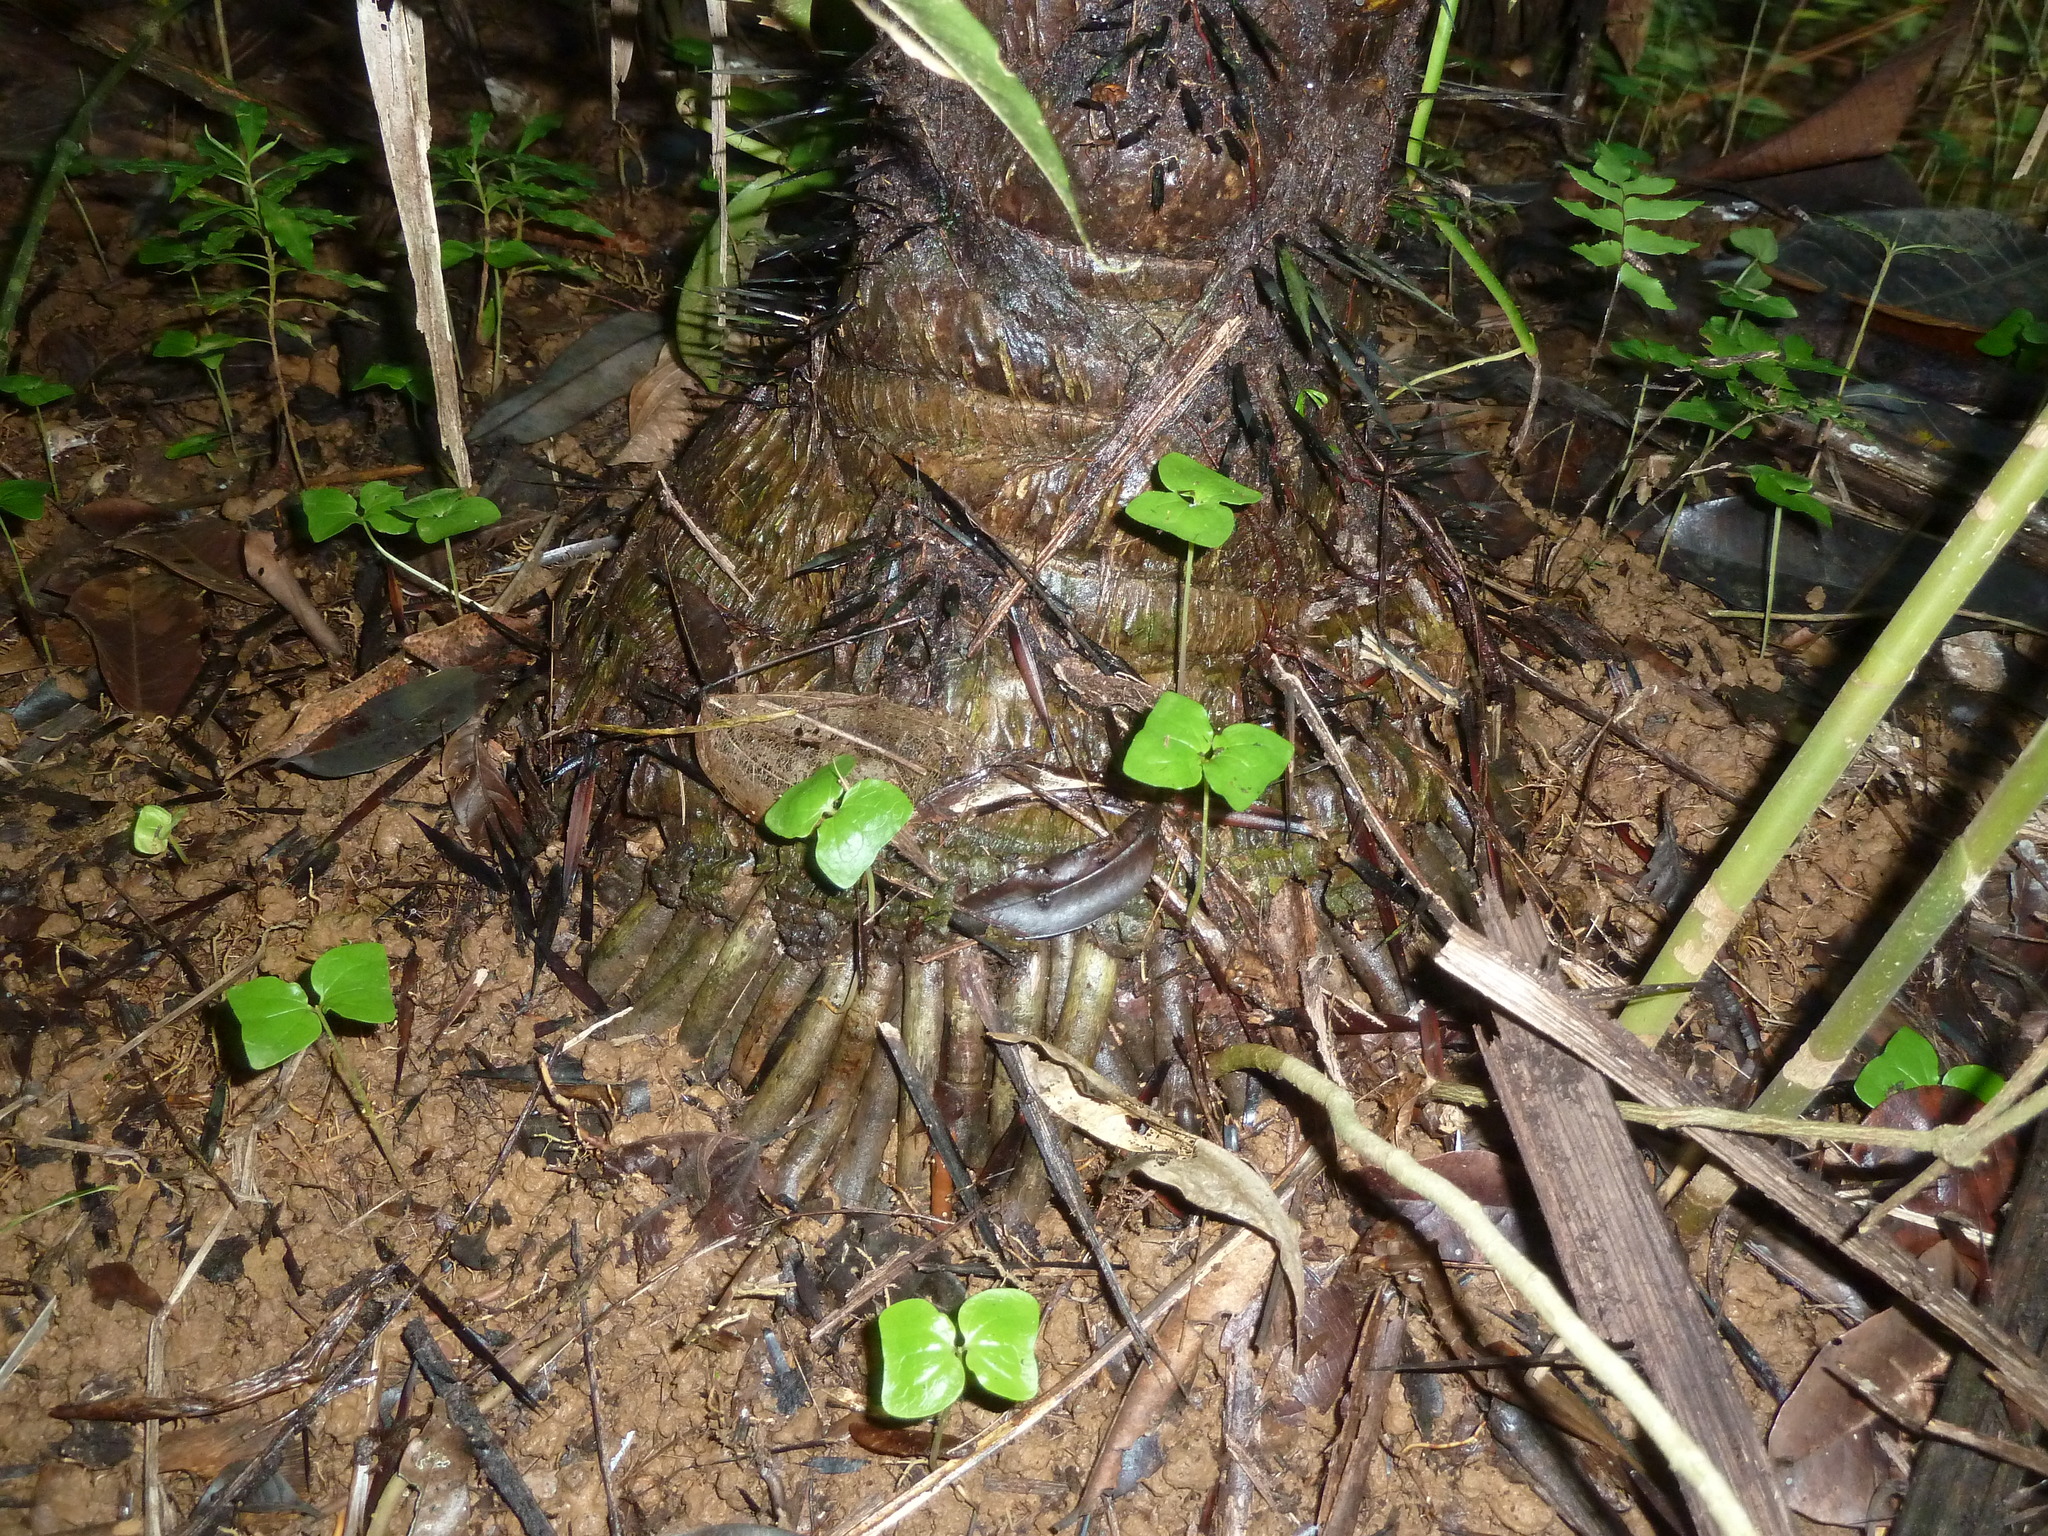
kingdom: Plantae
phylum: Tracheophyta
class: Liliopsida
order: Arecales
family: Arecaceae
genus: Astrocaryum
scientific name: Astrocaryum alatum
